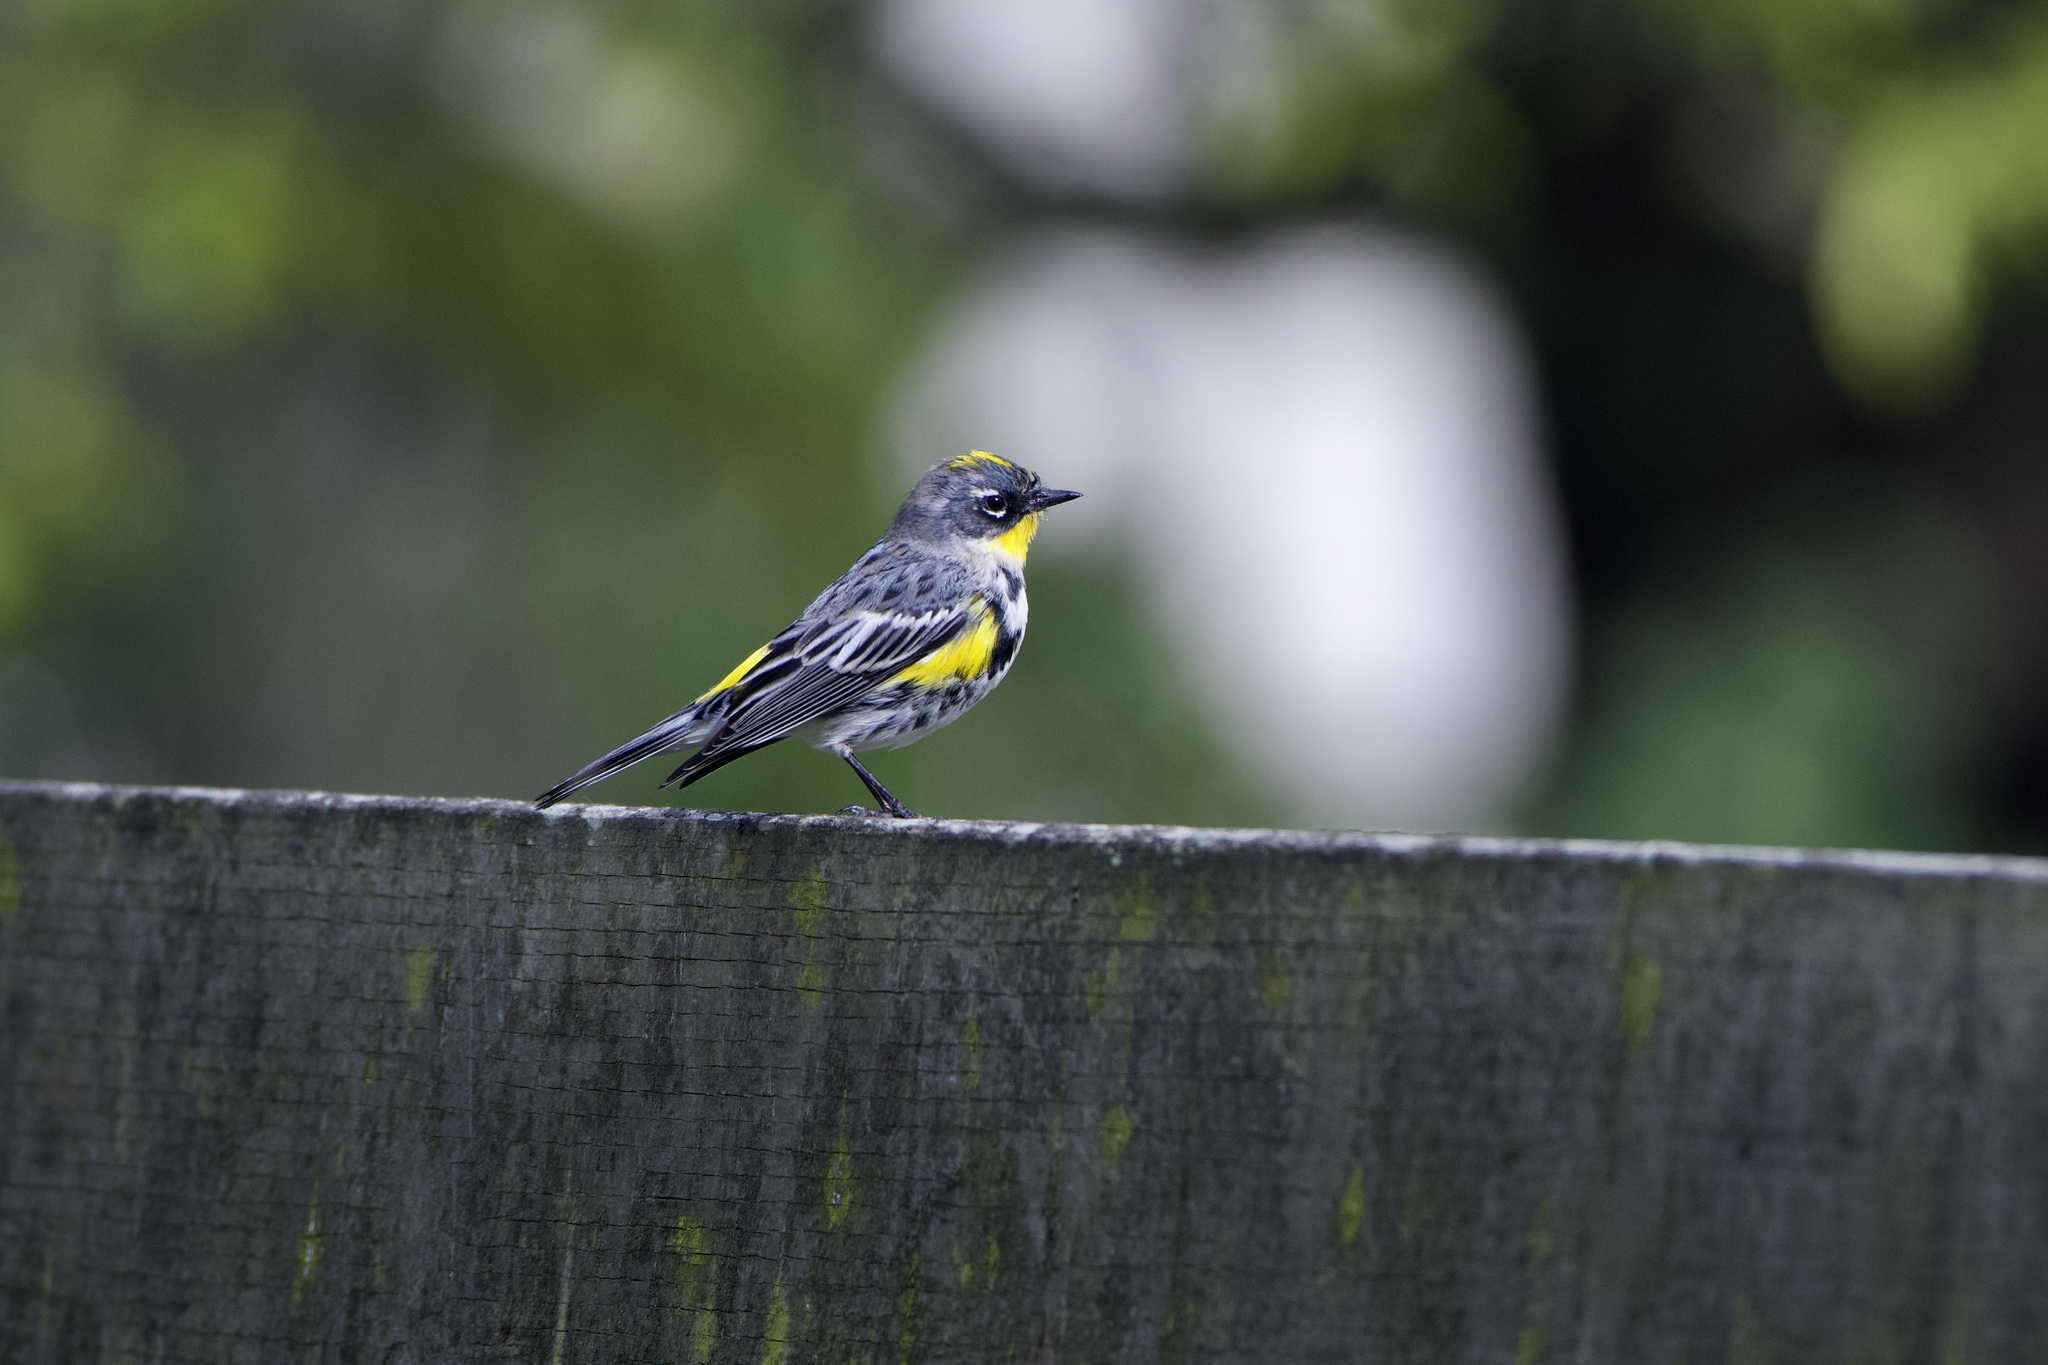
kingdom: Animalia
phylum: Chordata
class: Aves
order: Passeriformes
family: Parulidae
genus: Setophaga
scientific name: Setophaga coronata
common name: Myrtle warbler
